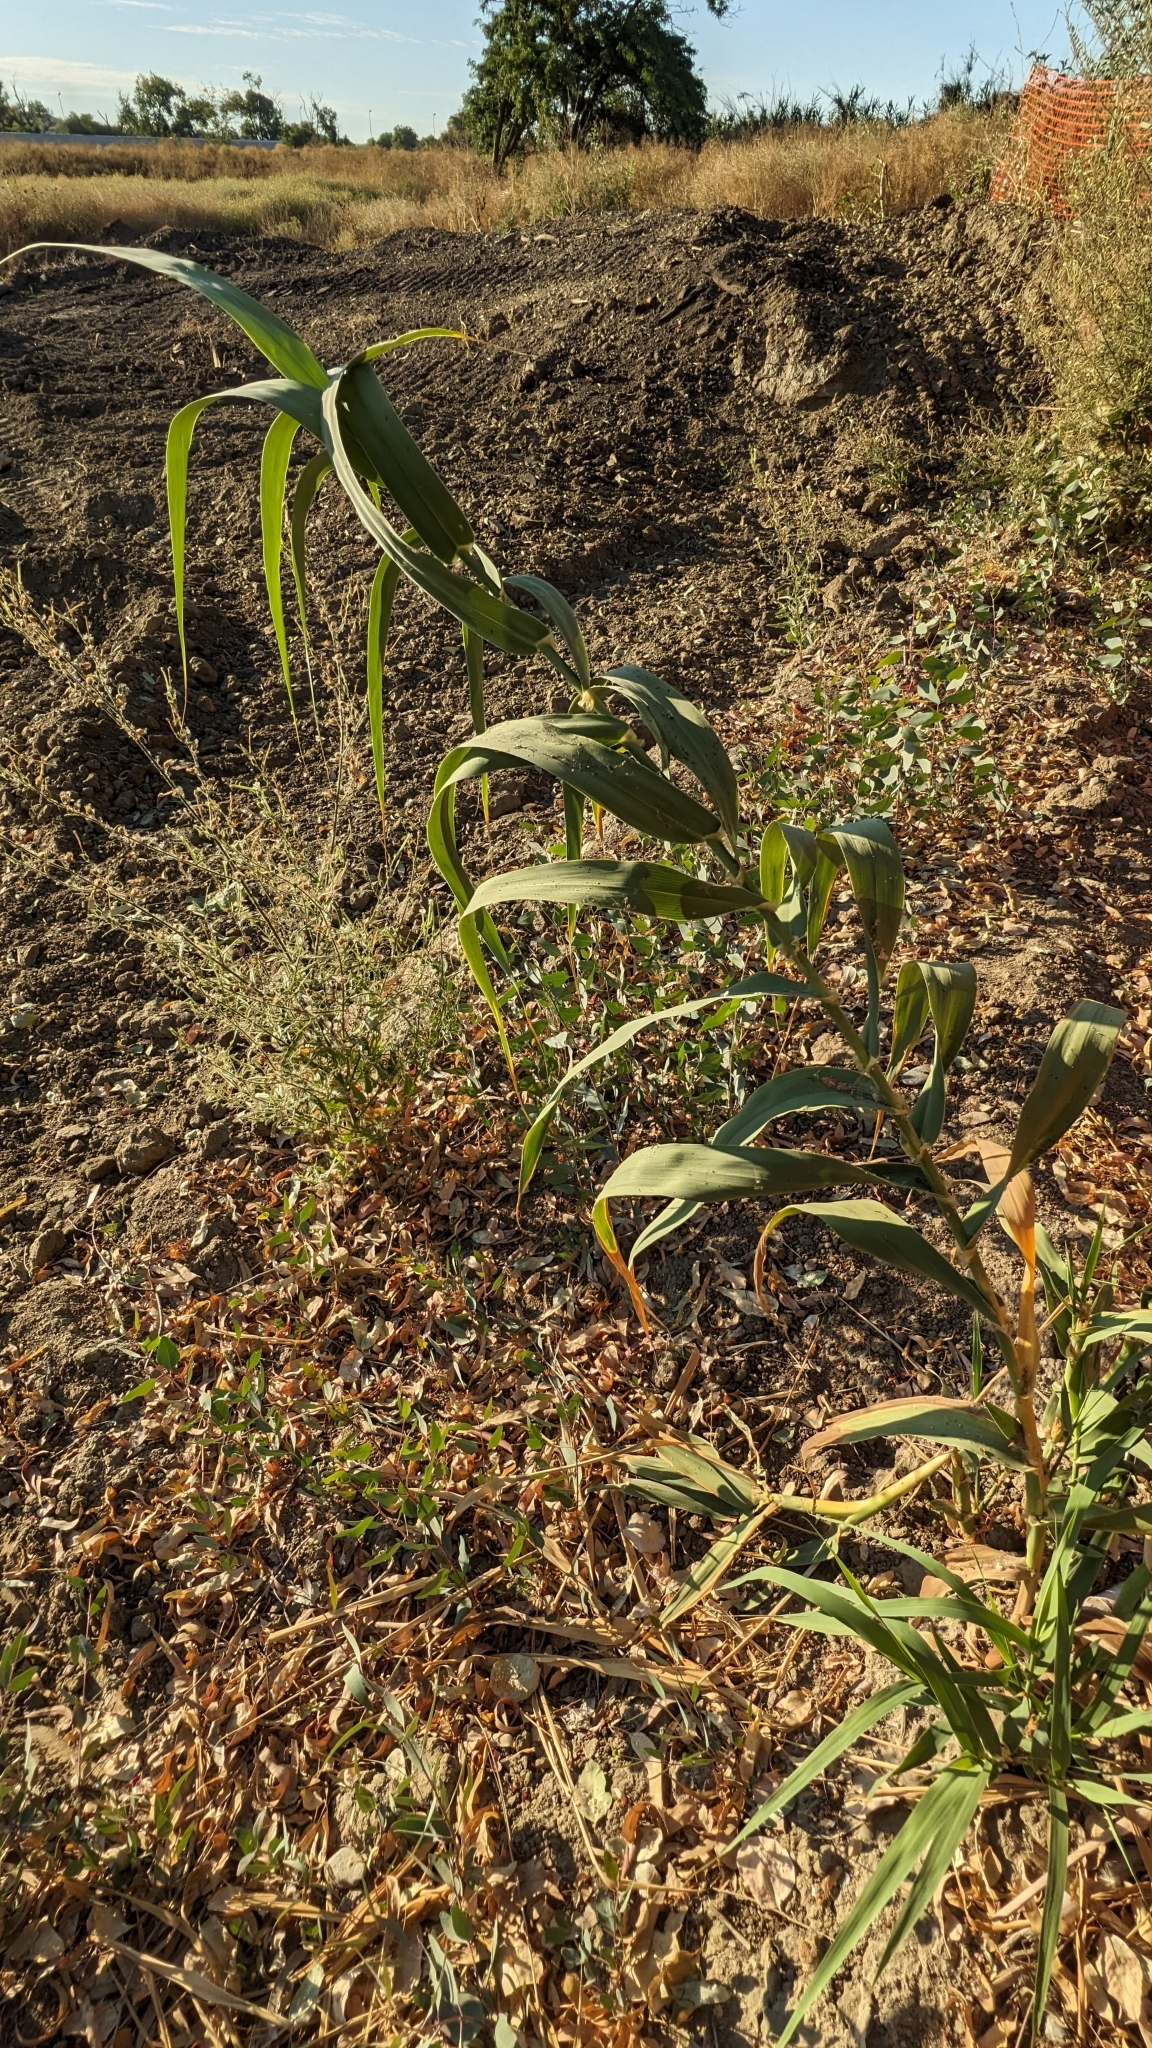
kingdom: Plantae
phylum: Tracheophyta
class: Liliopsida
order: Poales
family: Poaceae
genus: Arundo
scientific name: Arundo donax
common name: Giant reed
